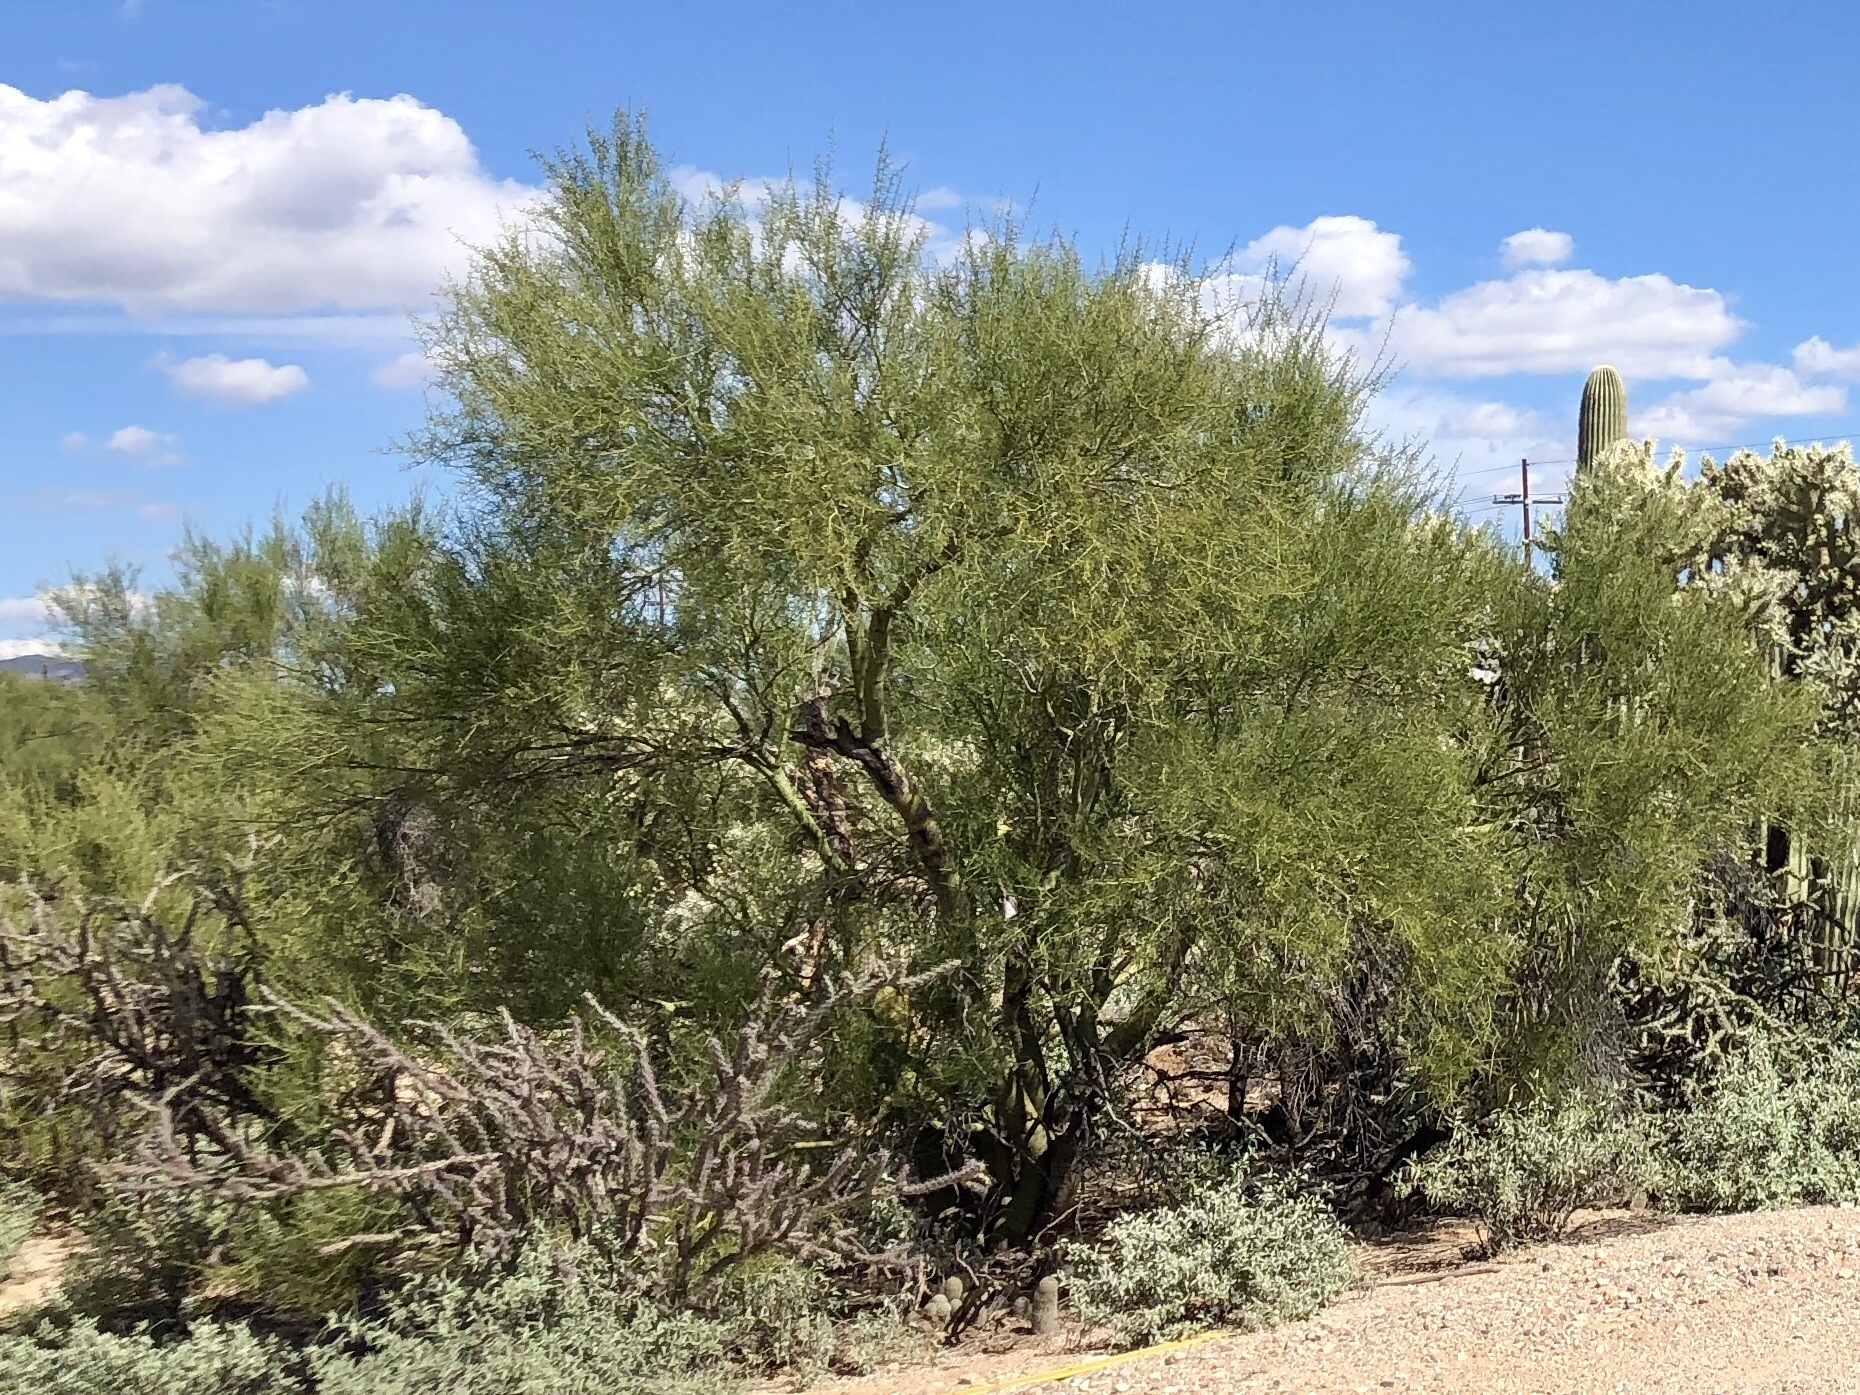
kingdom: Plantae
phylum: Tracheophyta
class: Magnoliopsida
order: Fabales
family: Fabaceae
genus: Parkinsonia
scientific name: Parkinsonia microphylla
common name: Yellow paloverde
